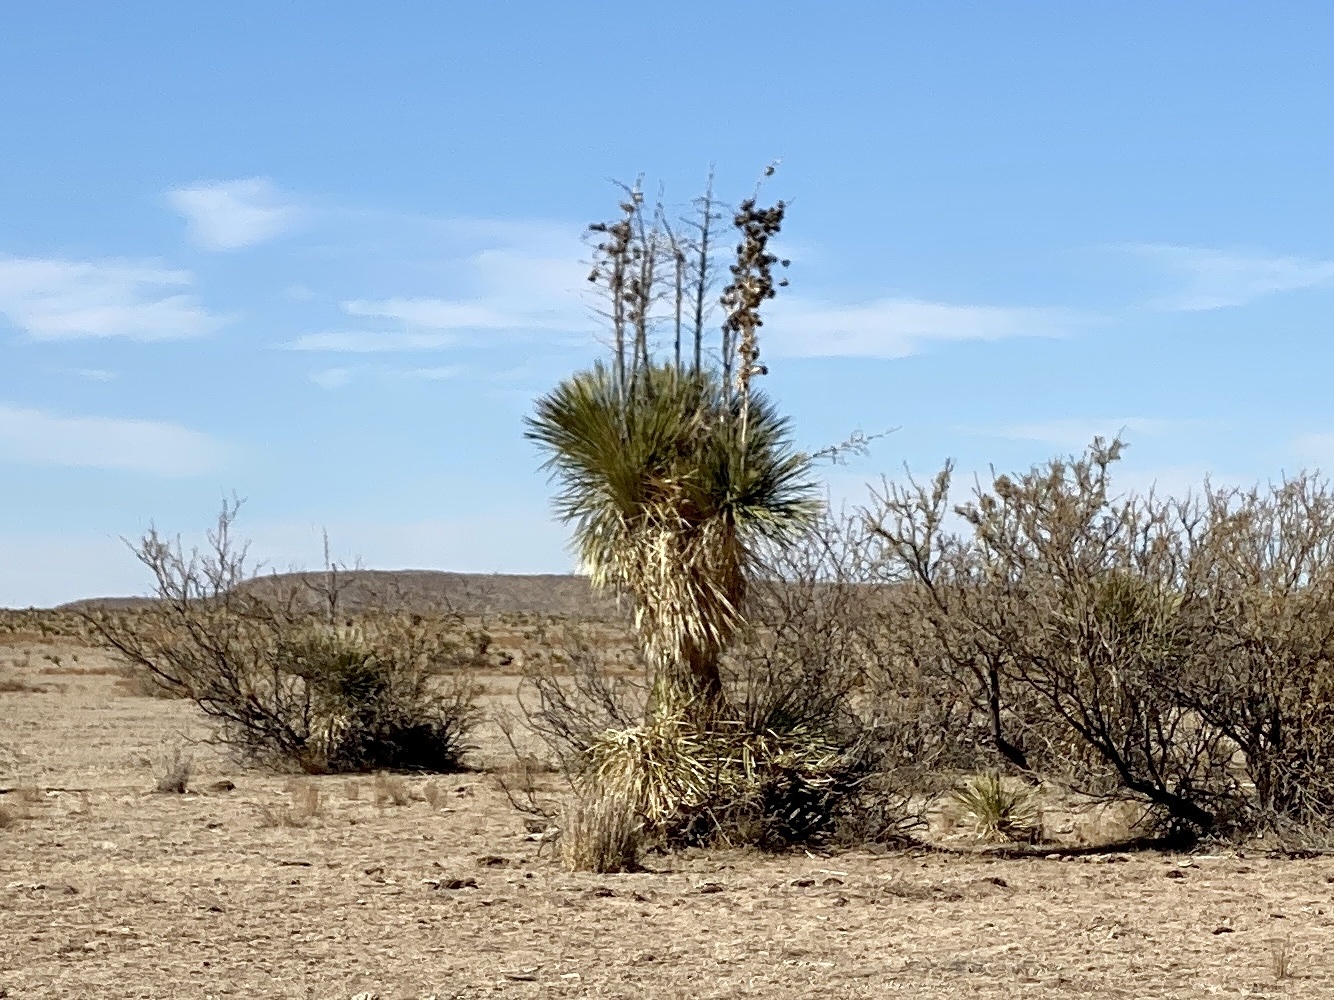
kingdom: Plantae
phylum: Tracheophyta
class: Liliopsida
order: Asparagales
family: Asparagaceae
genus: Yucca
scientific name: Yucca elata
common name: Palmella
